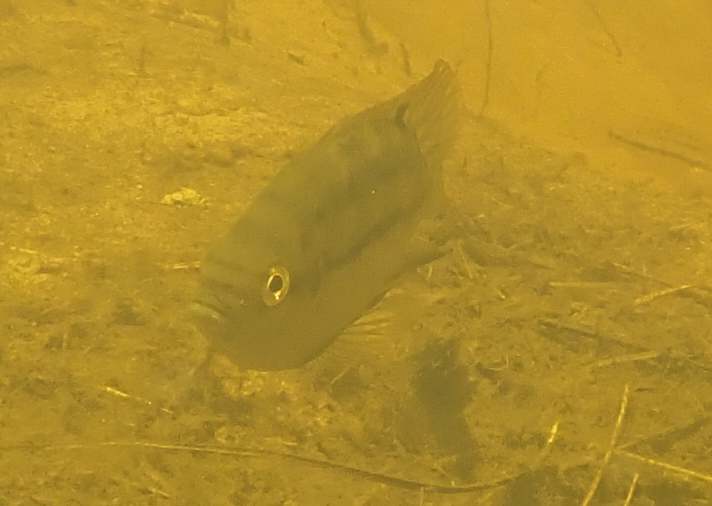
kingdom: Animalia
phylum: Chordata
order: Perciformes
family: Cichlidae
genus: Tilapia
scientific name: Tilapia sparrmanii
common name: Banded tilapia
